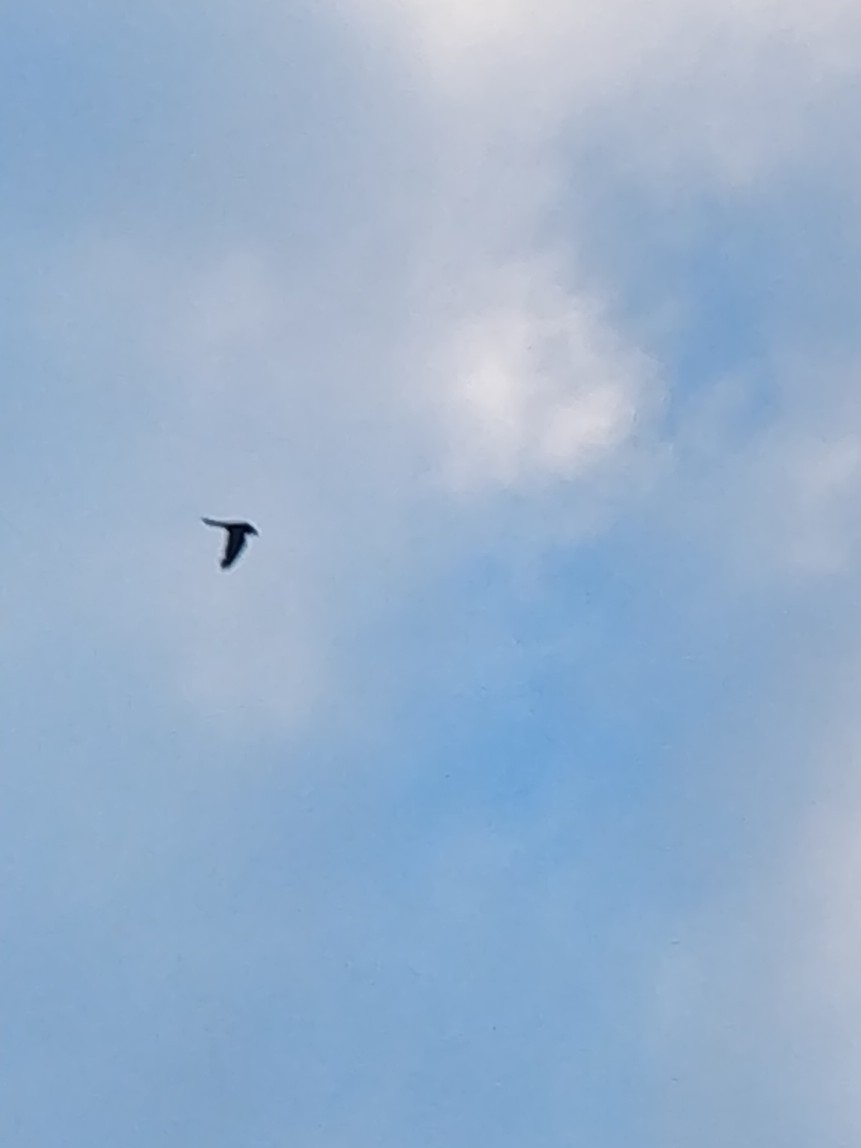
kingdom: Animalia
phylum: Chordata
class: Aves
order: Falconiformes
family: Falconidae
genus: Falco
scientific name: Falco tinnunculus
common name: Common kestrel
